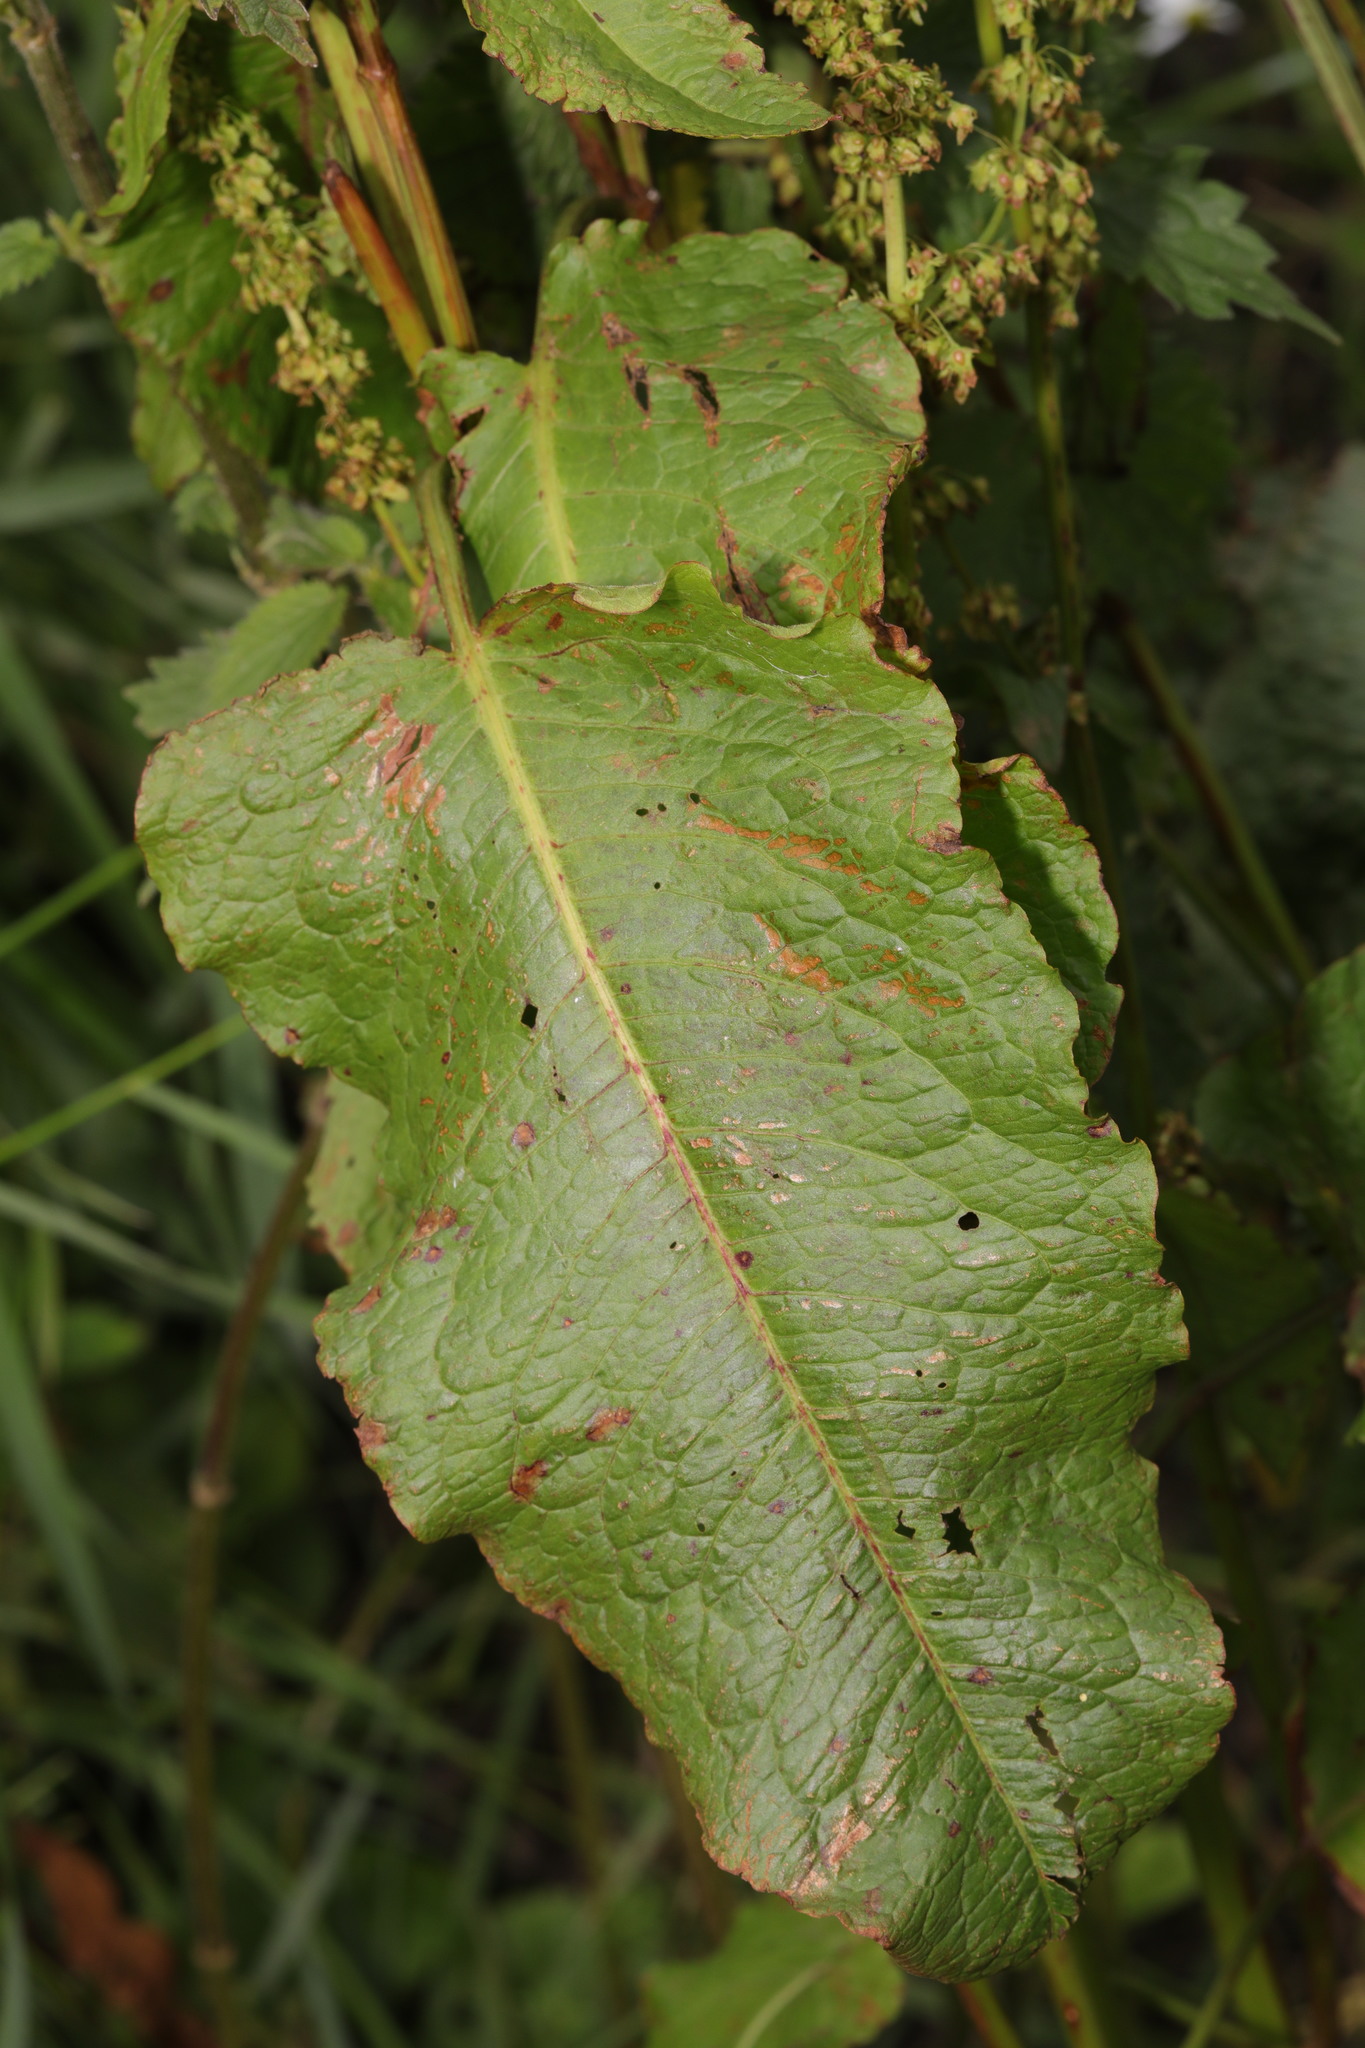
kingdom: Plantae
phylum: Tracheophyta
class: Magnoliopsida
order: Caryophyllales
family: Polygonaceae
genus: Rumex
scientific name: Rumex obtusifolius
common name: Bitter dock
